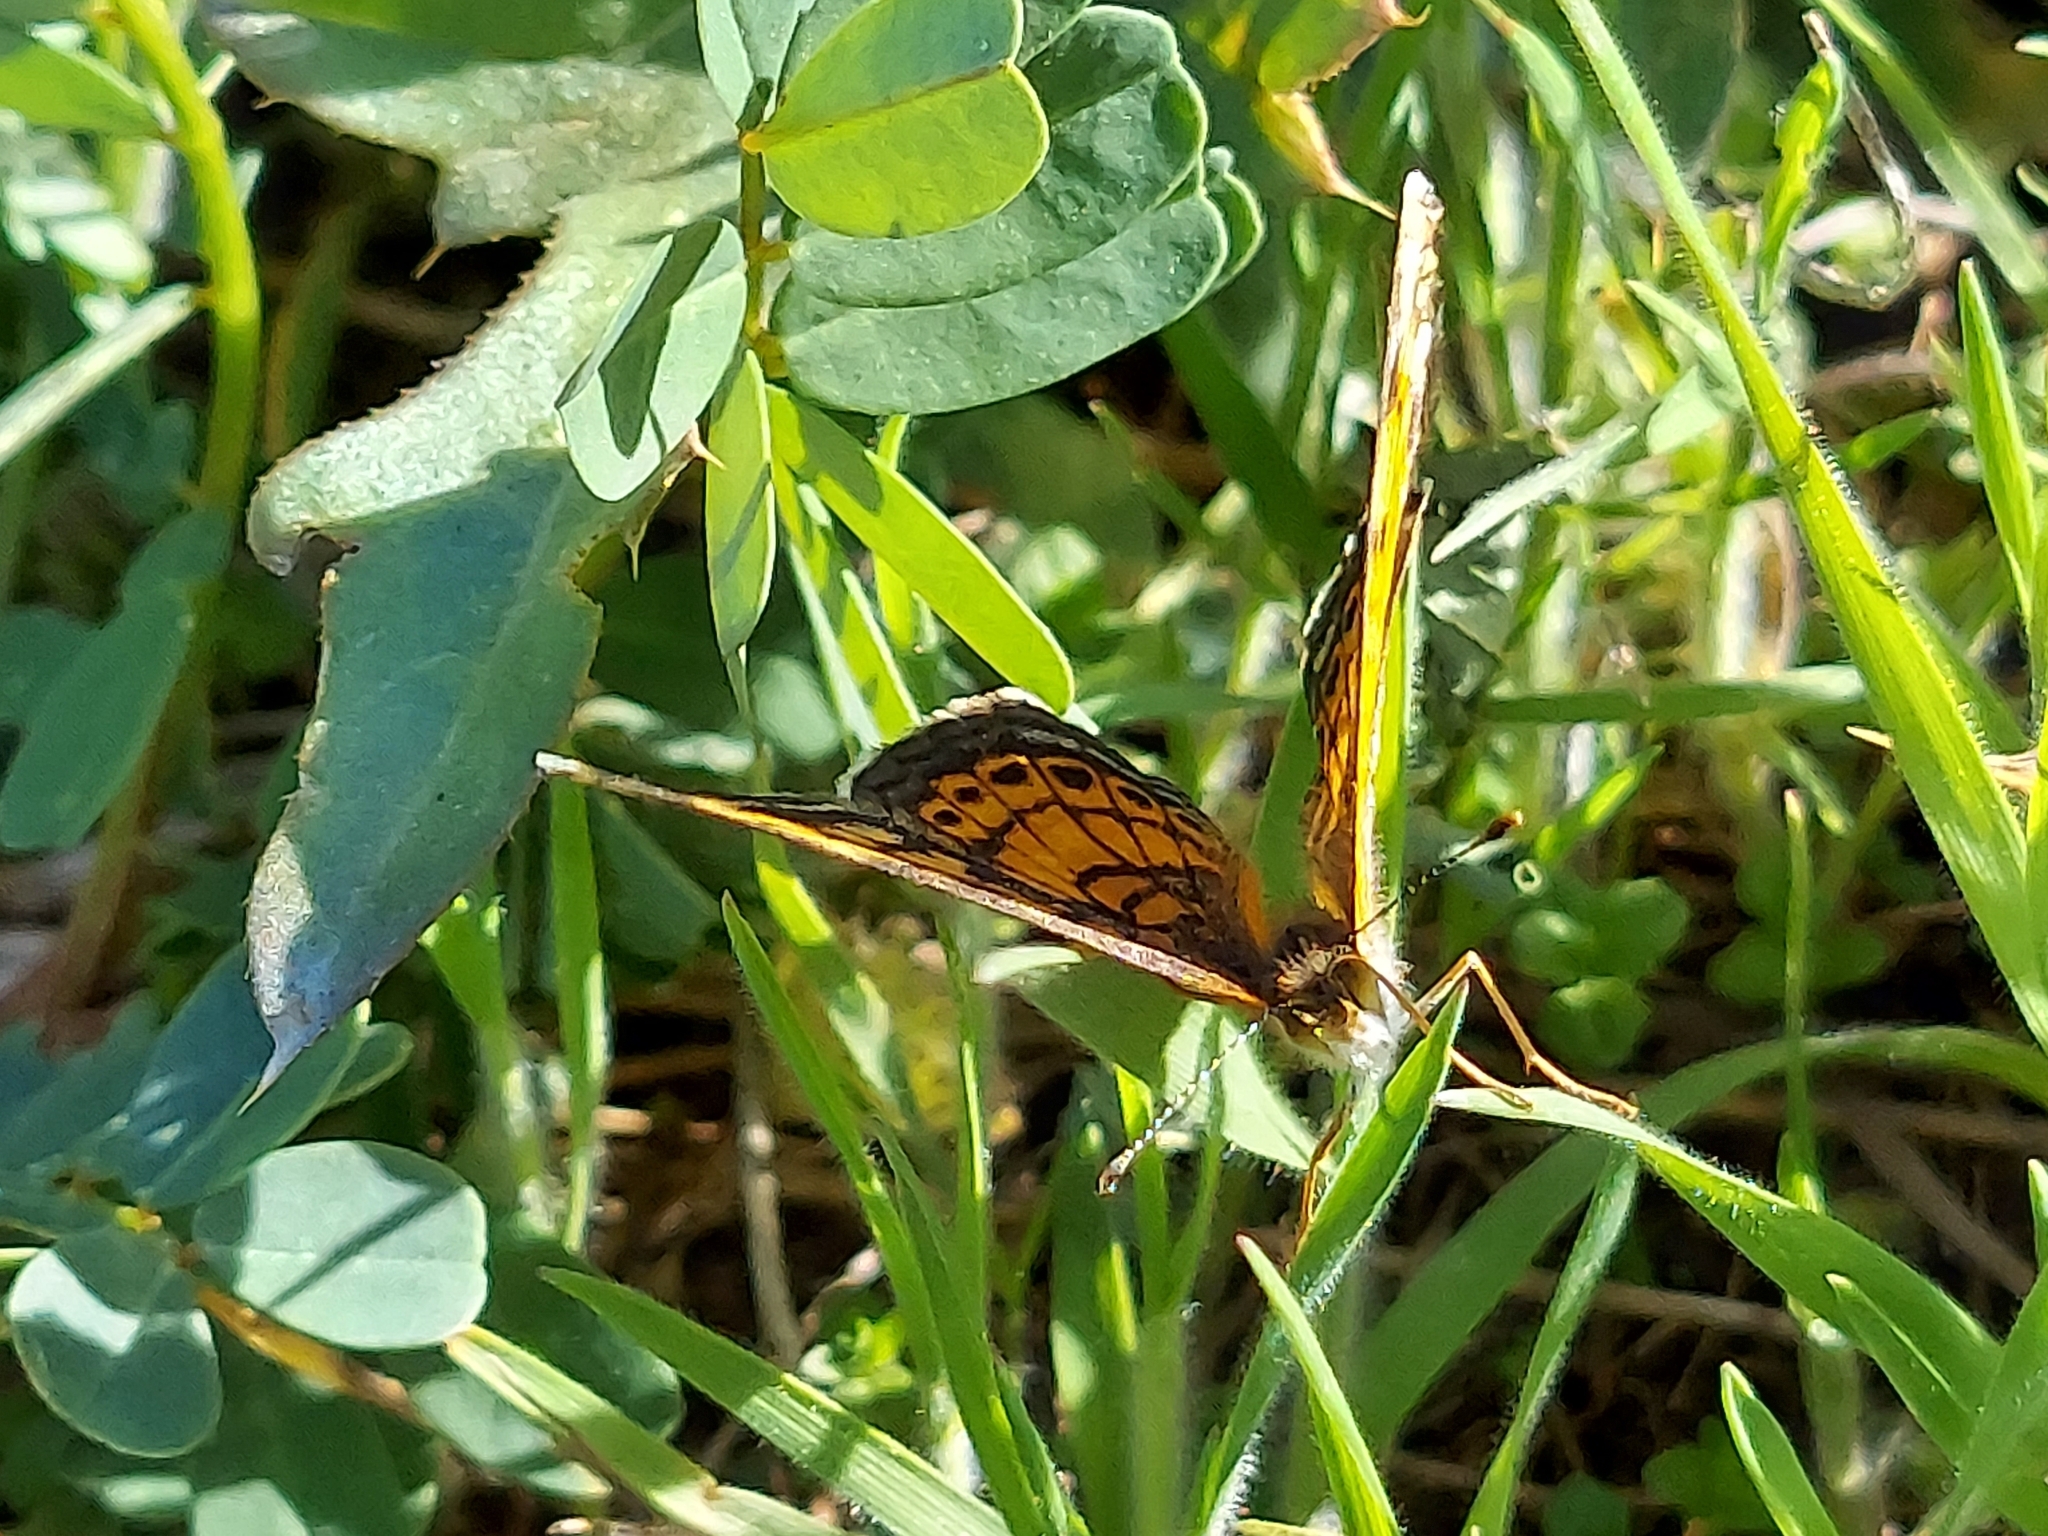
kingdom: Animalia
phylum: Arthropoda
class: Insecta
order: Lepidoptera
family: Nymphalidae
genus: Phyciodes
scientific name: Phyciodes tharos
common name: Pearl crescent
